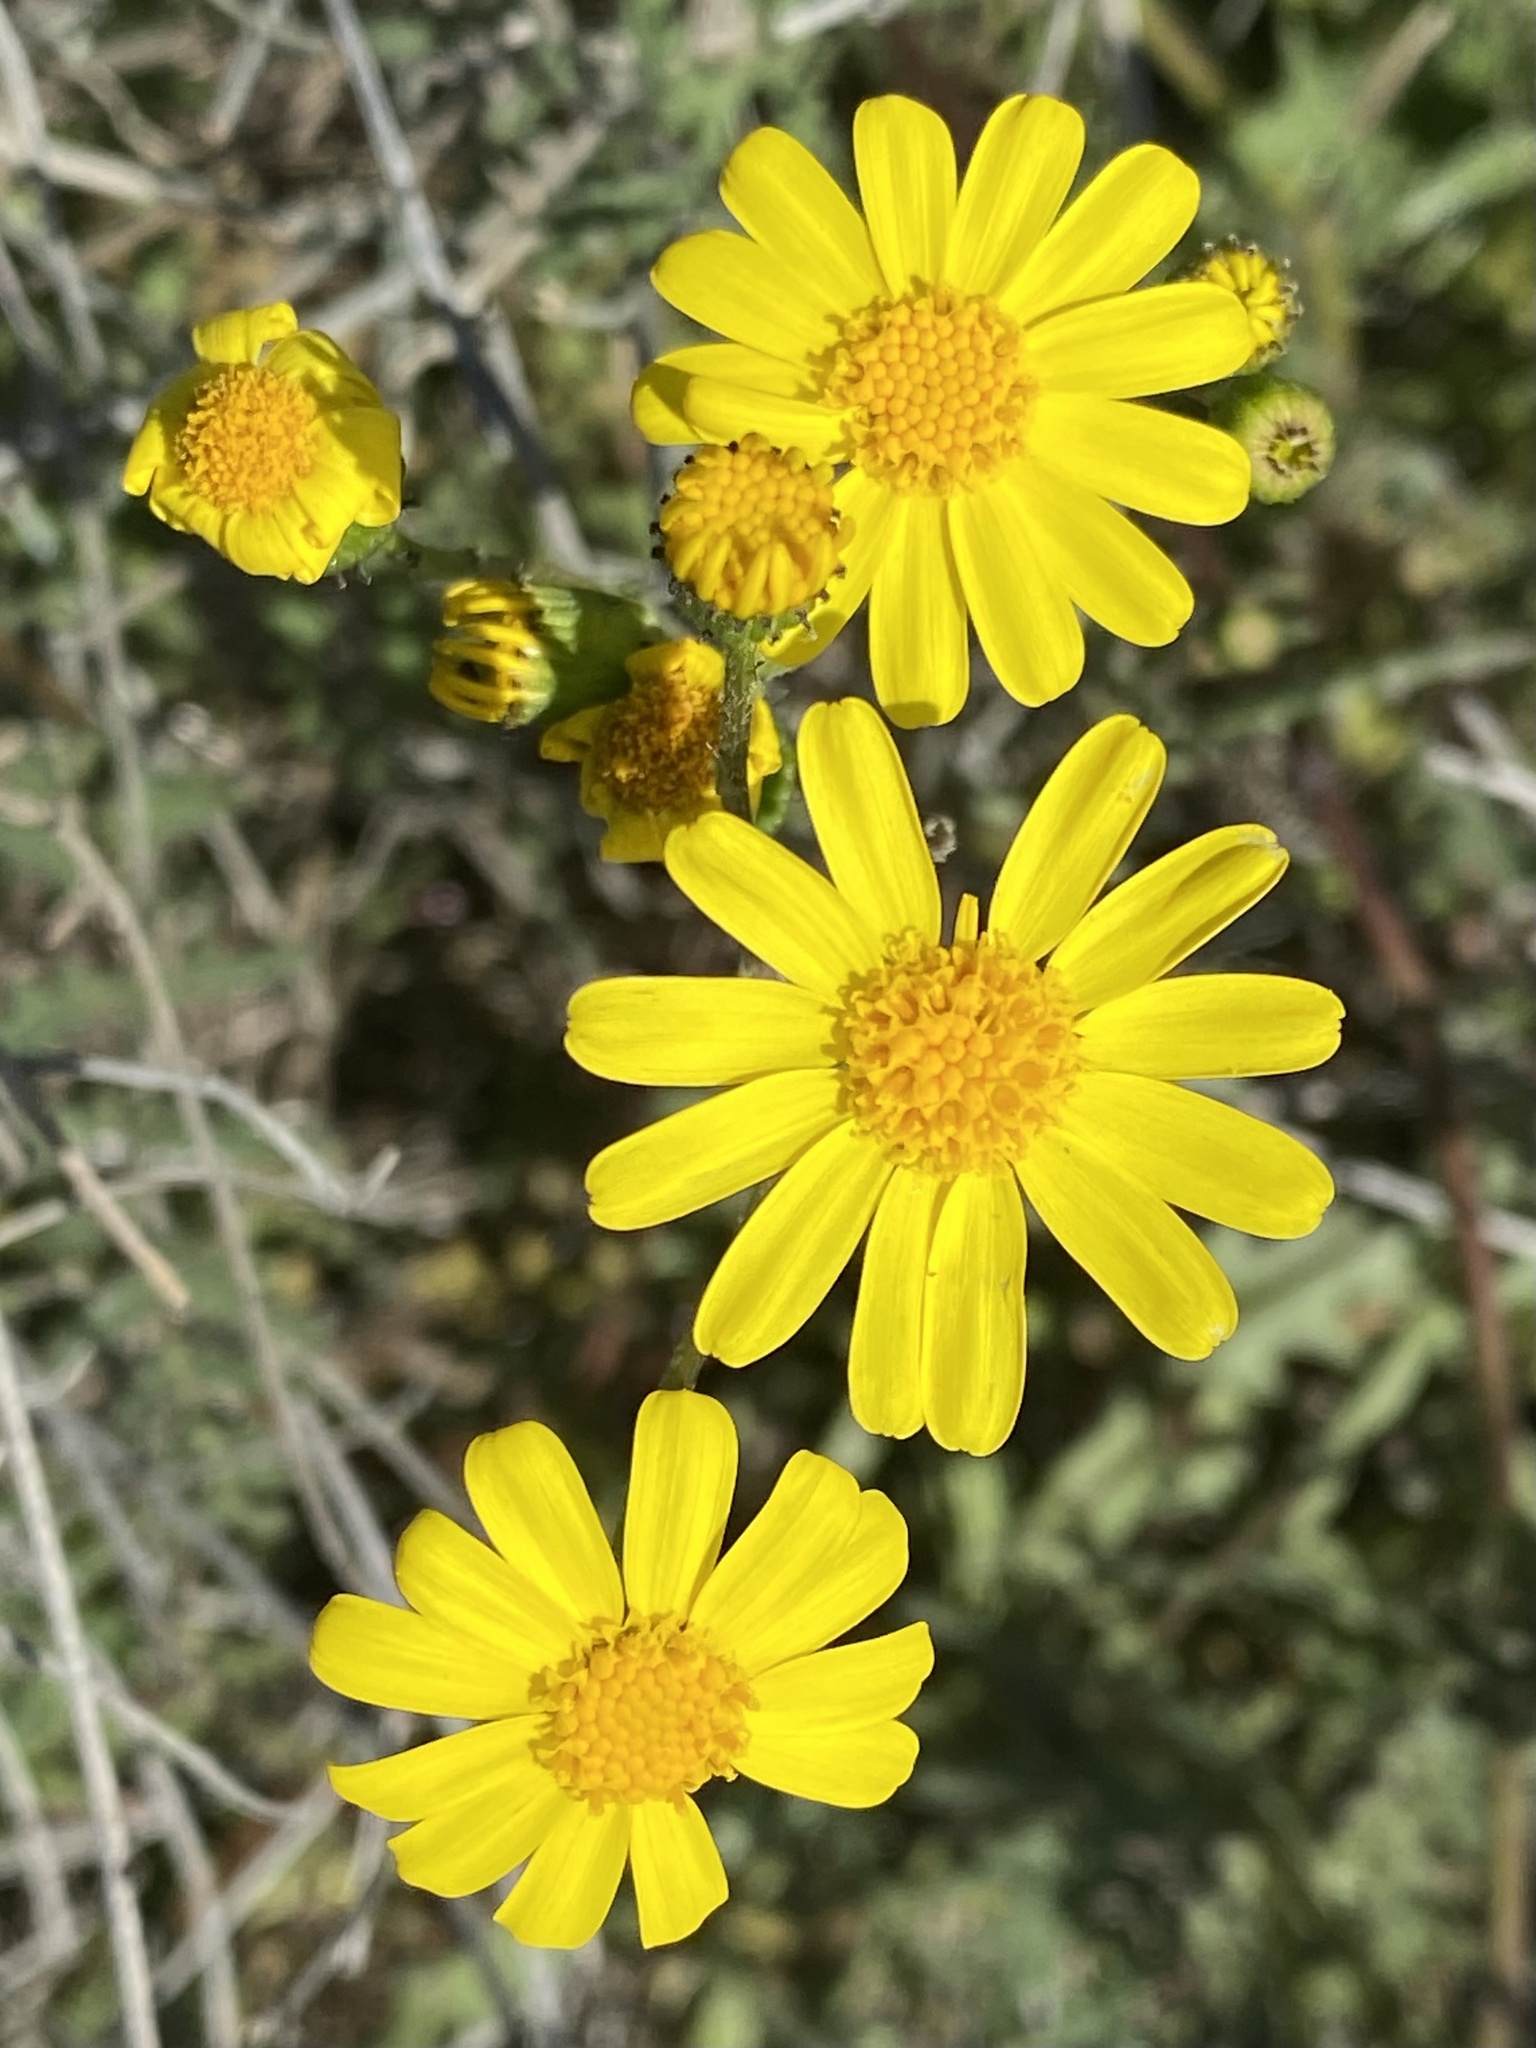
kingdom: Plantae
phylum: Tracheophyta
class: Magnoliopsida
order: Asterales
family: Asteraceae
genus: Senecio
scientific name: Senecio californicus
